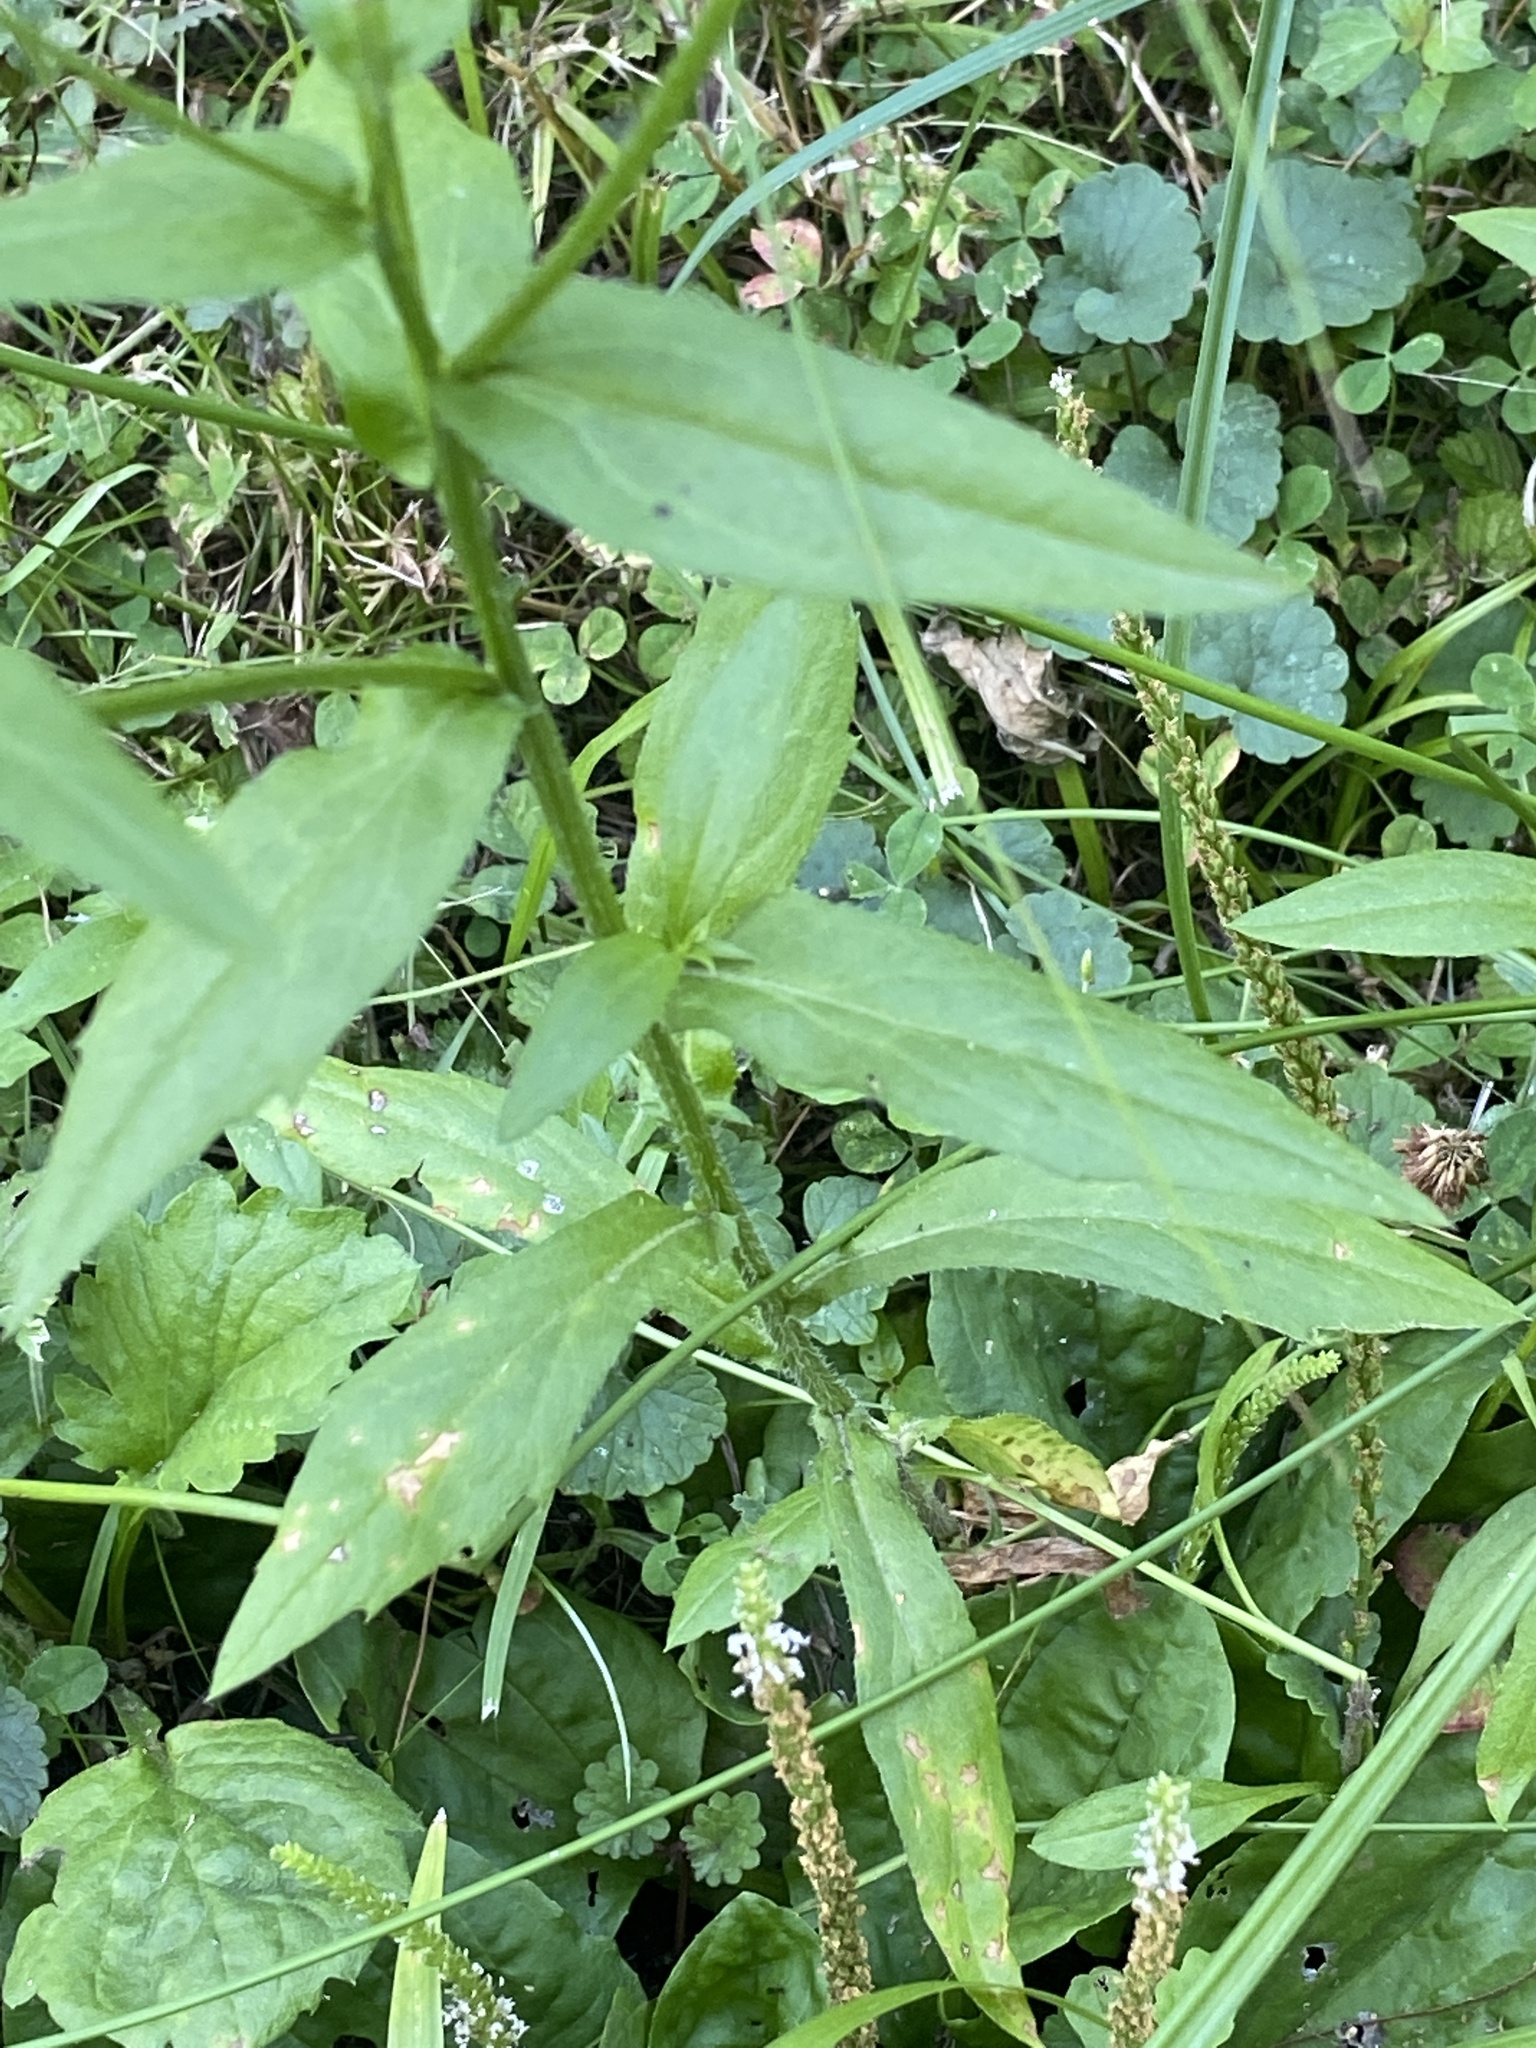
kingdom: Plantae
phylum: Tracheophyta
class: Magnoliopsida
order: Asterales
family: Asteraceae
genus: Erigeron
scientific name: Erigeron annuus
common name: Tall fleabane
